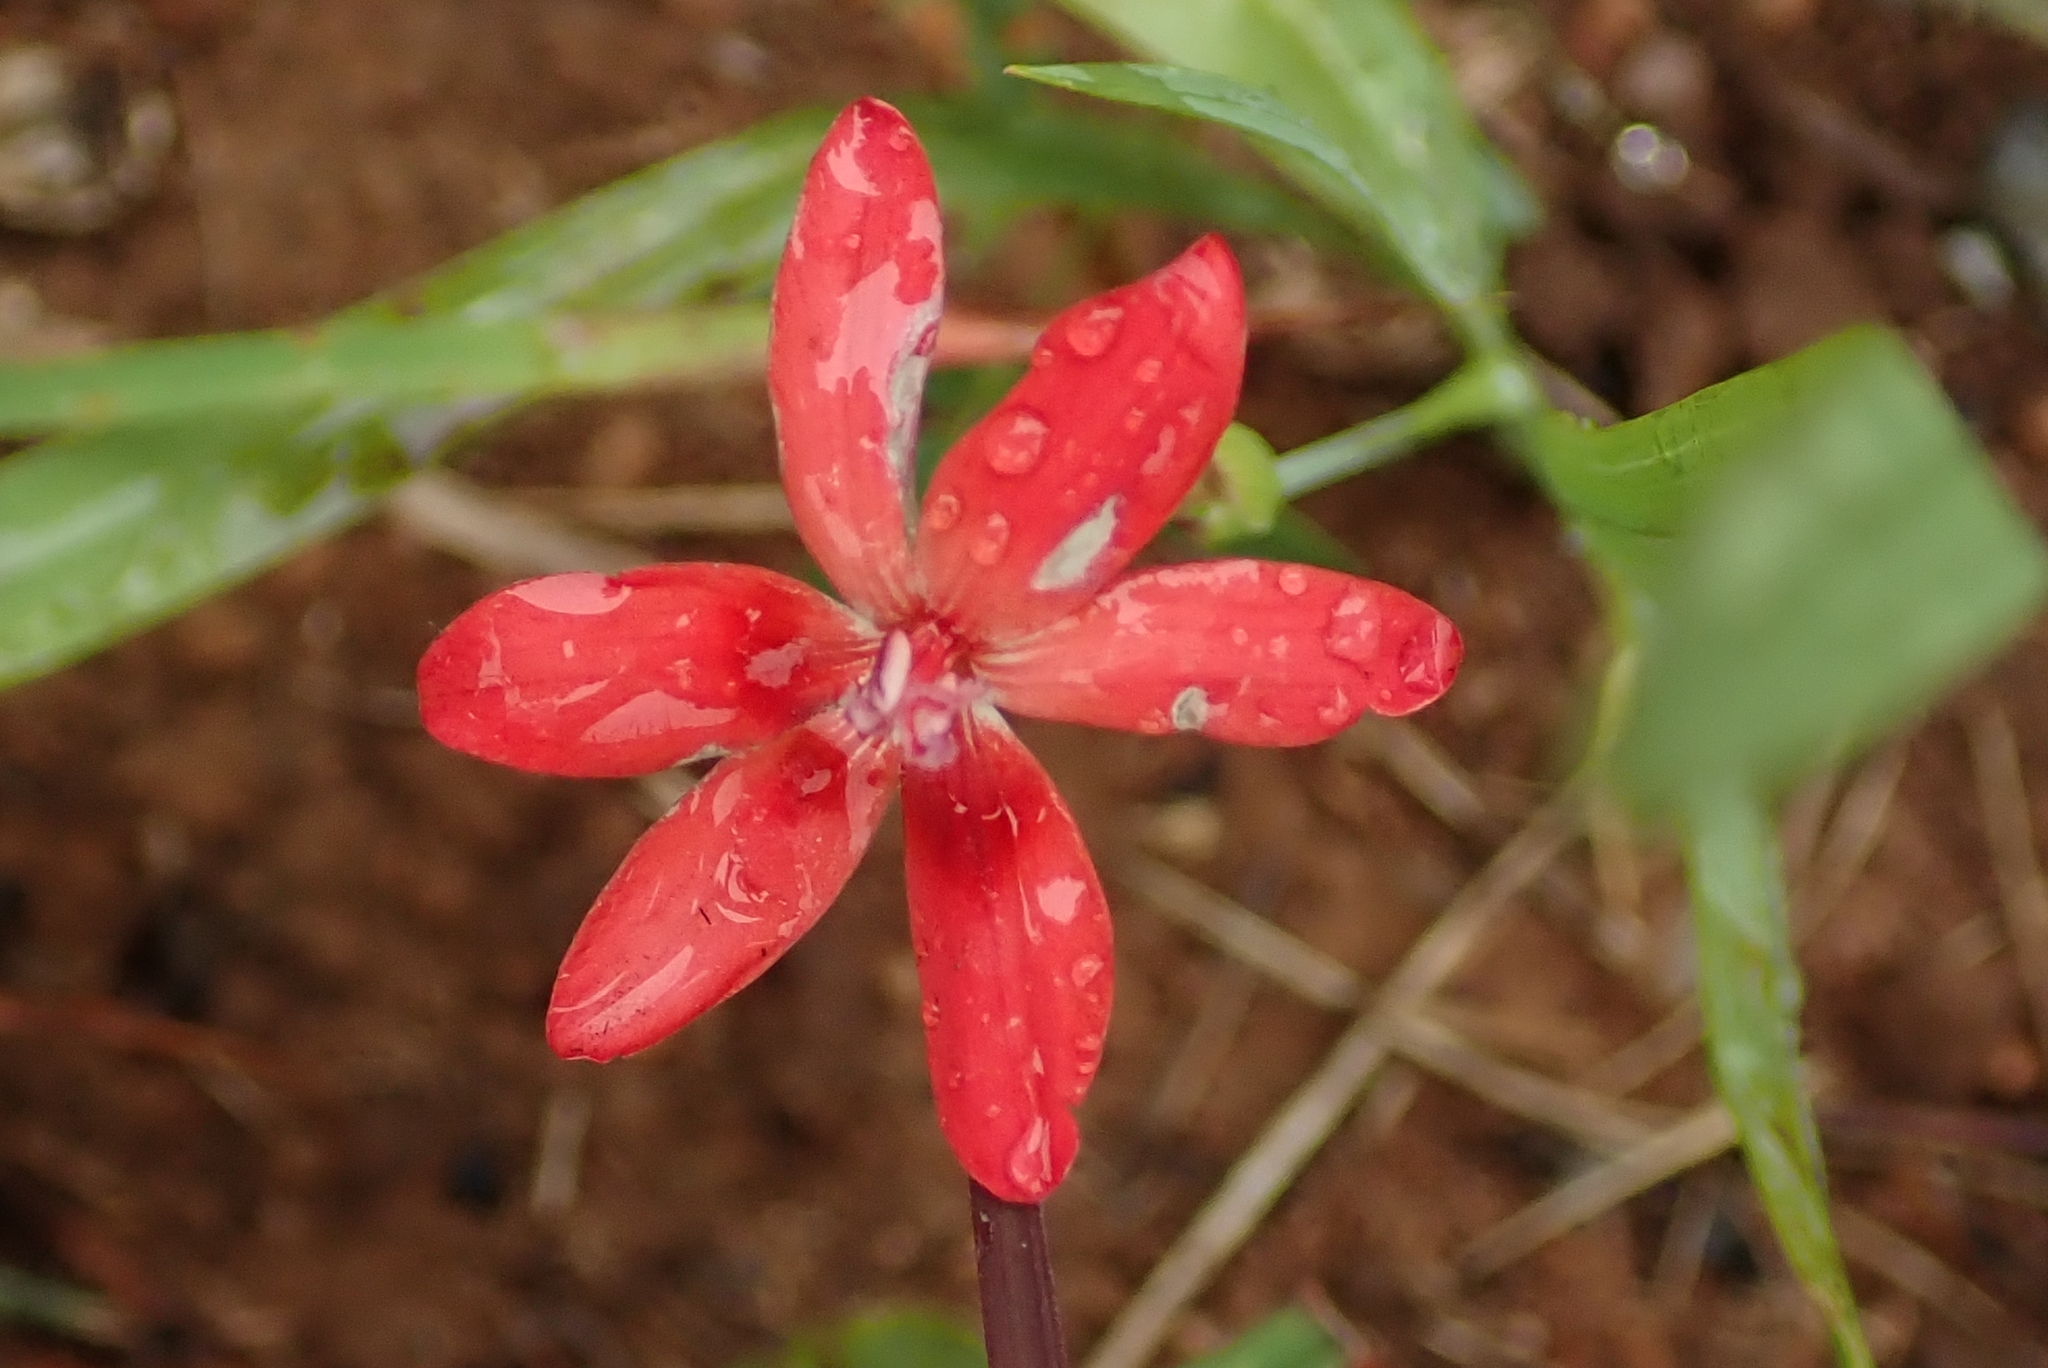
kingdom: Plantae
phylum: Tracheophyta
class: Liliopsida
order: Asparagales
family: Iridaceae
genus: Freesia
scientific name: Freesia laxa
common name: False freesia
